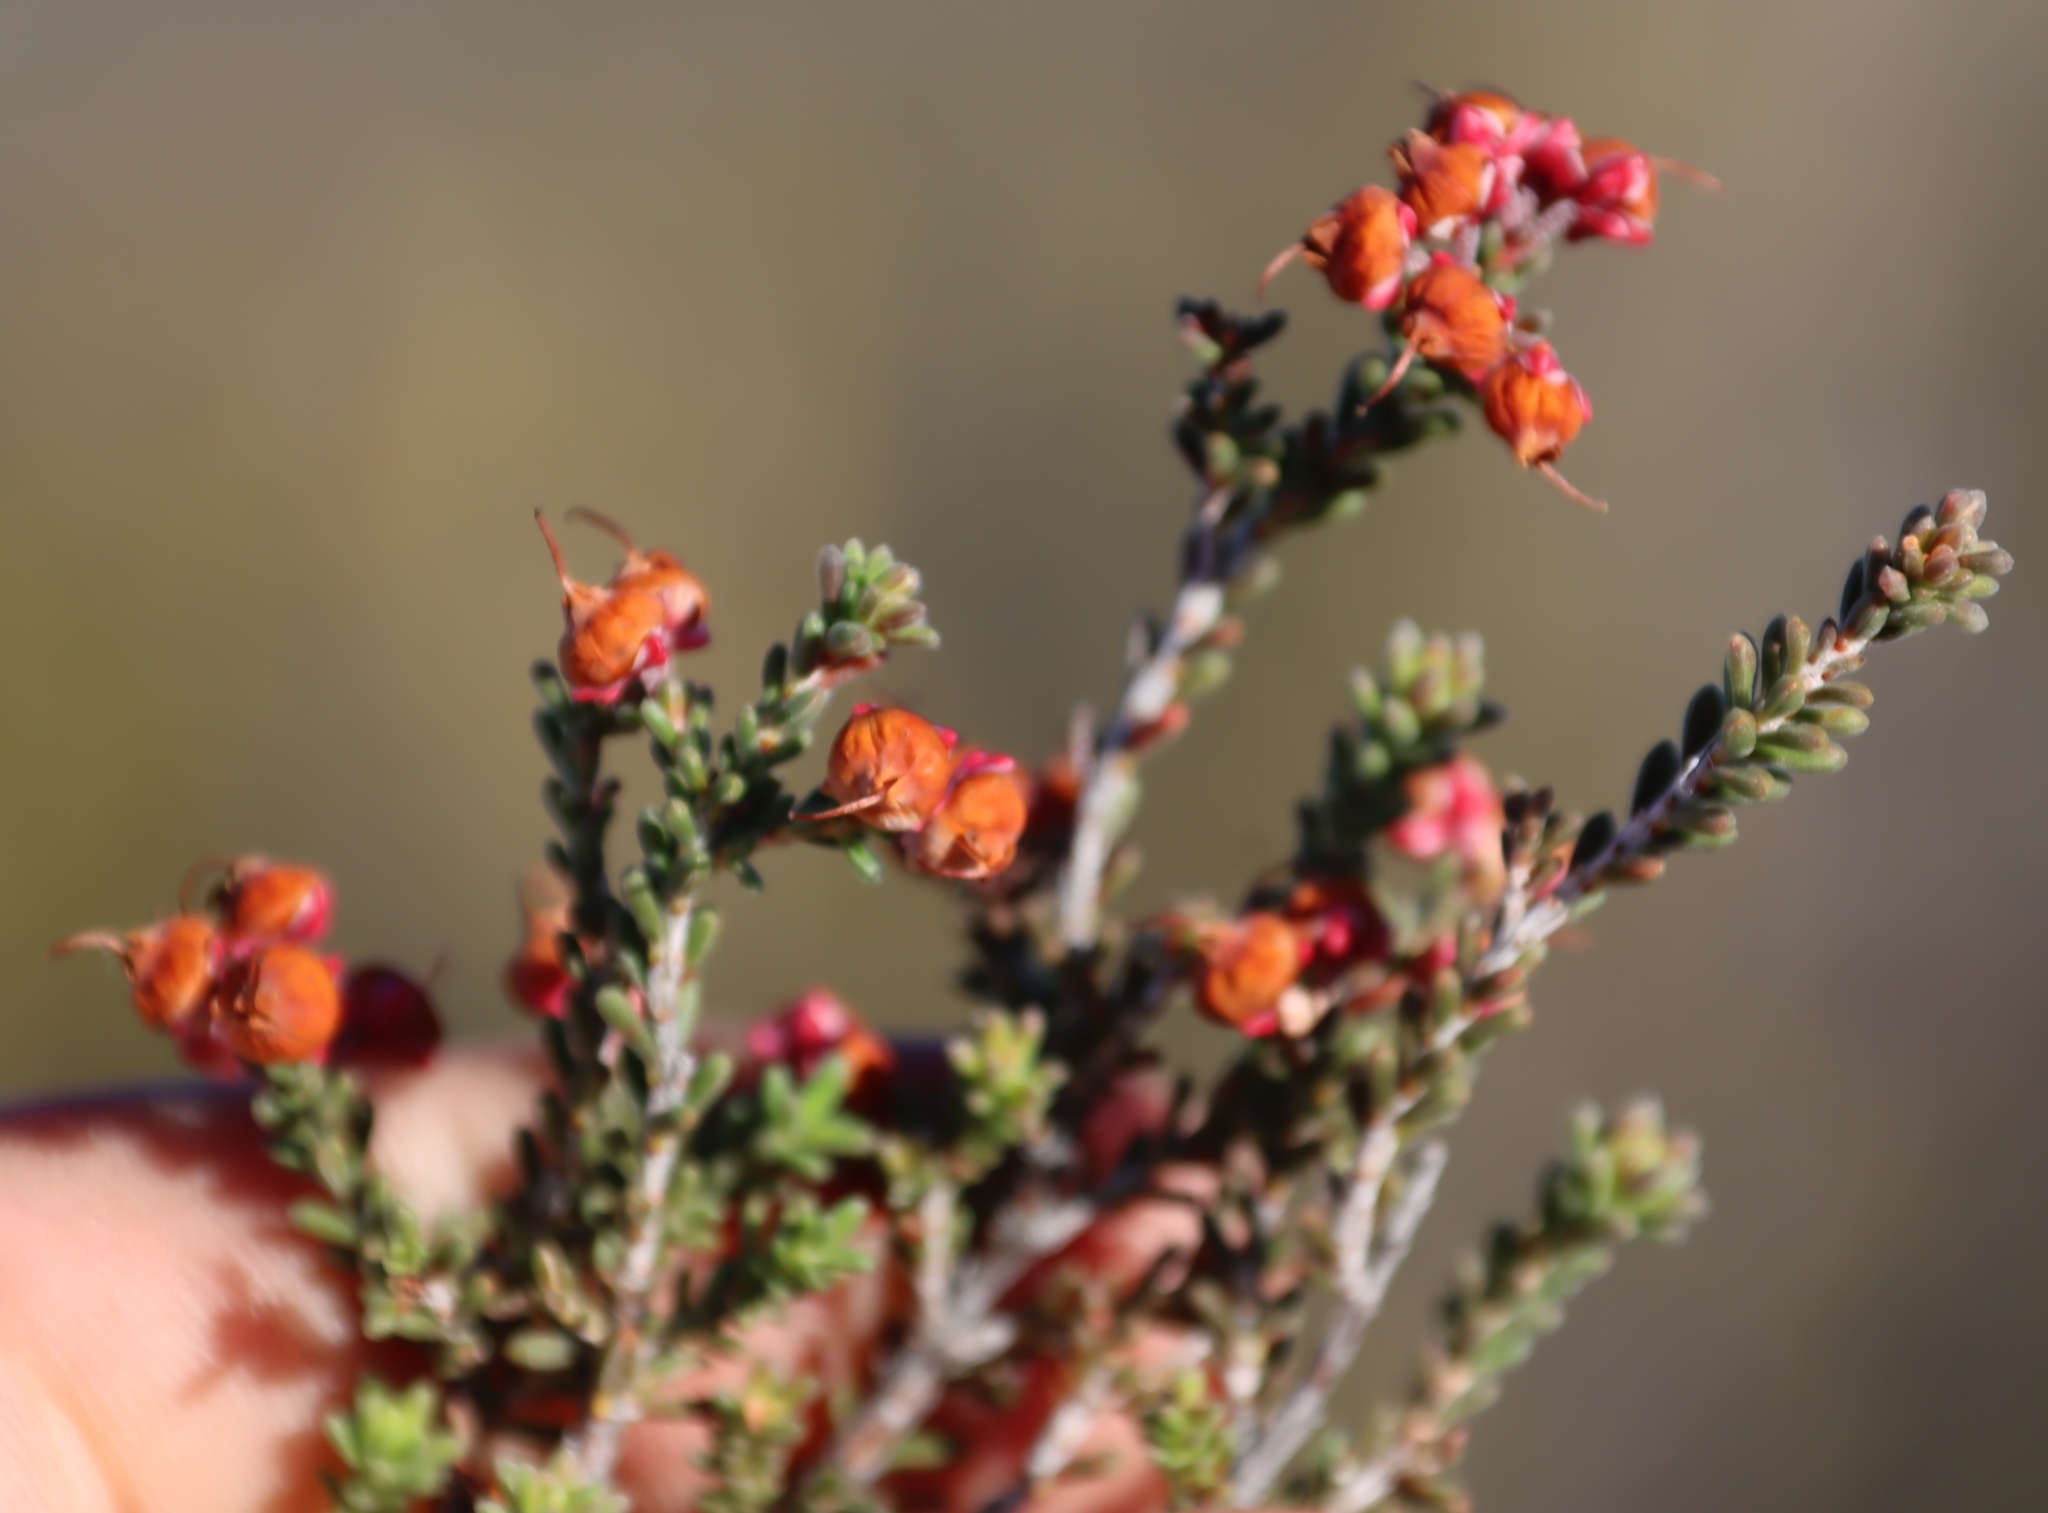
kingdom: Plantae
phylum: Tracheophyta
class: Magnoliopsida
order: Ericales
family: Ericaceae
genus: Erica
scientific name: Erica umbelliflora
